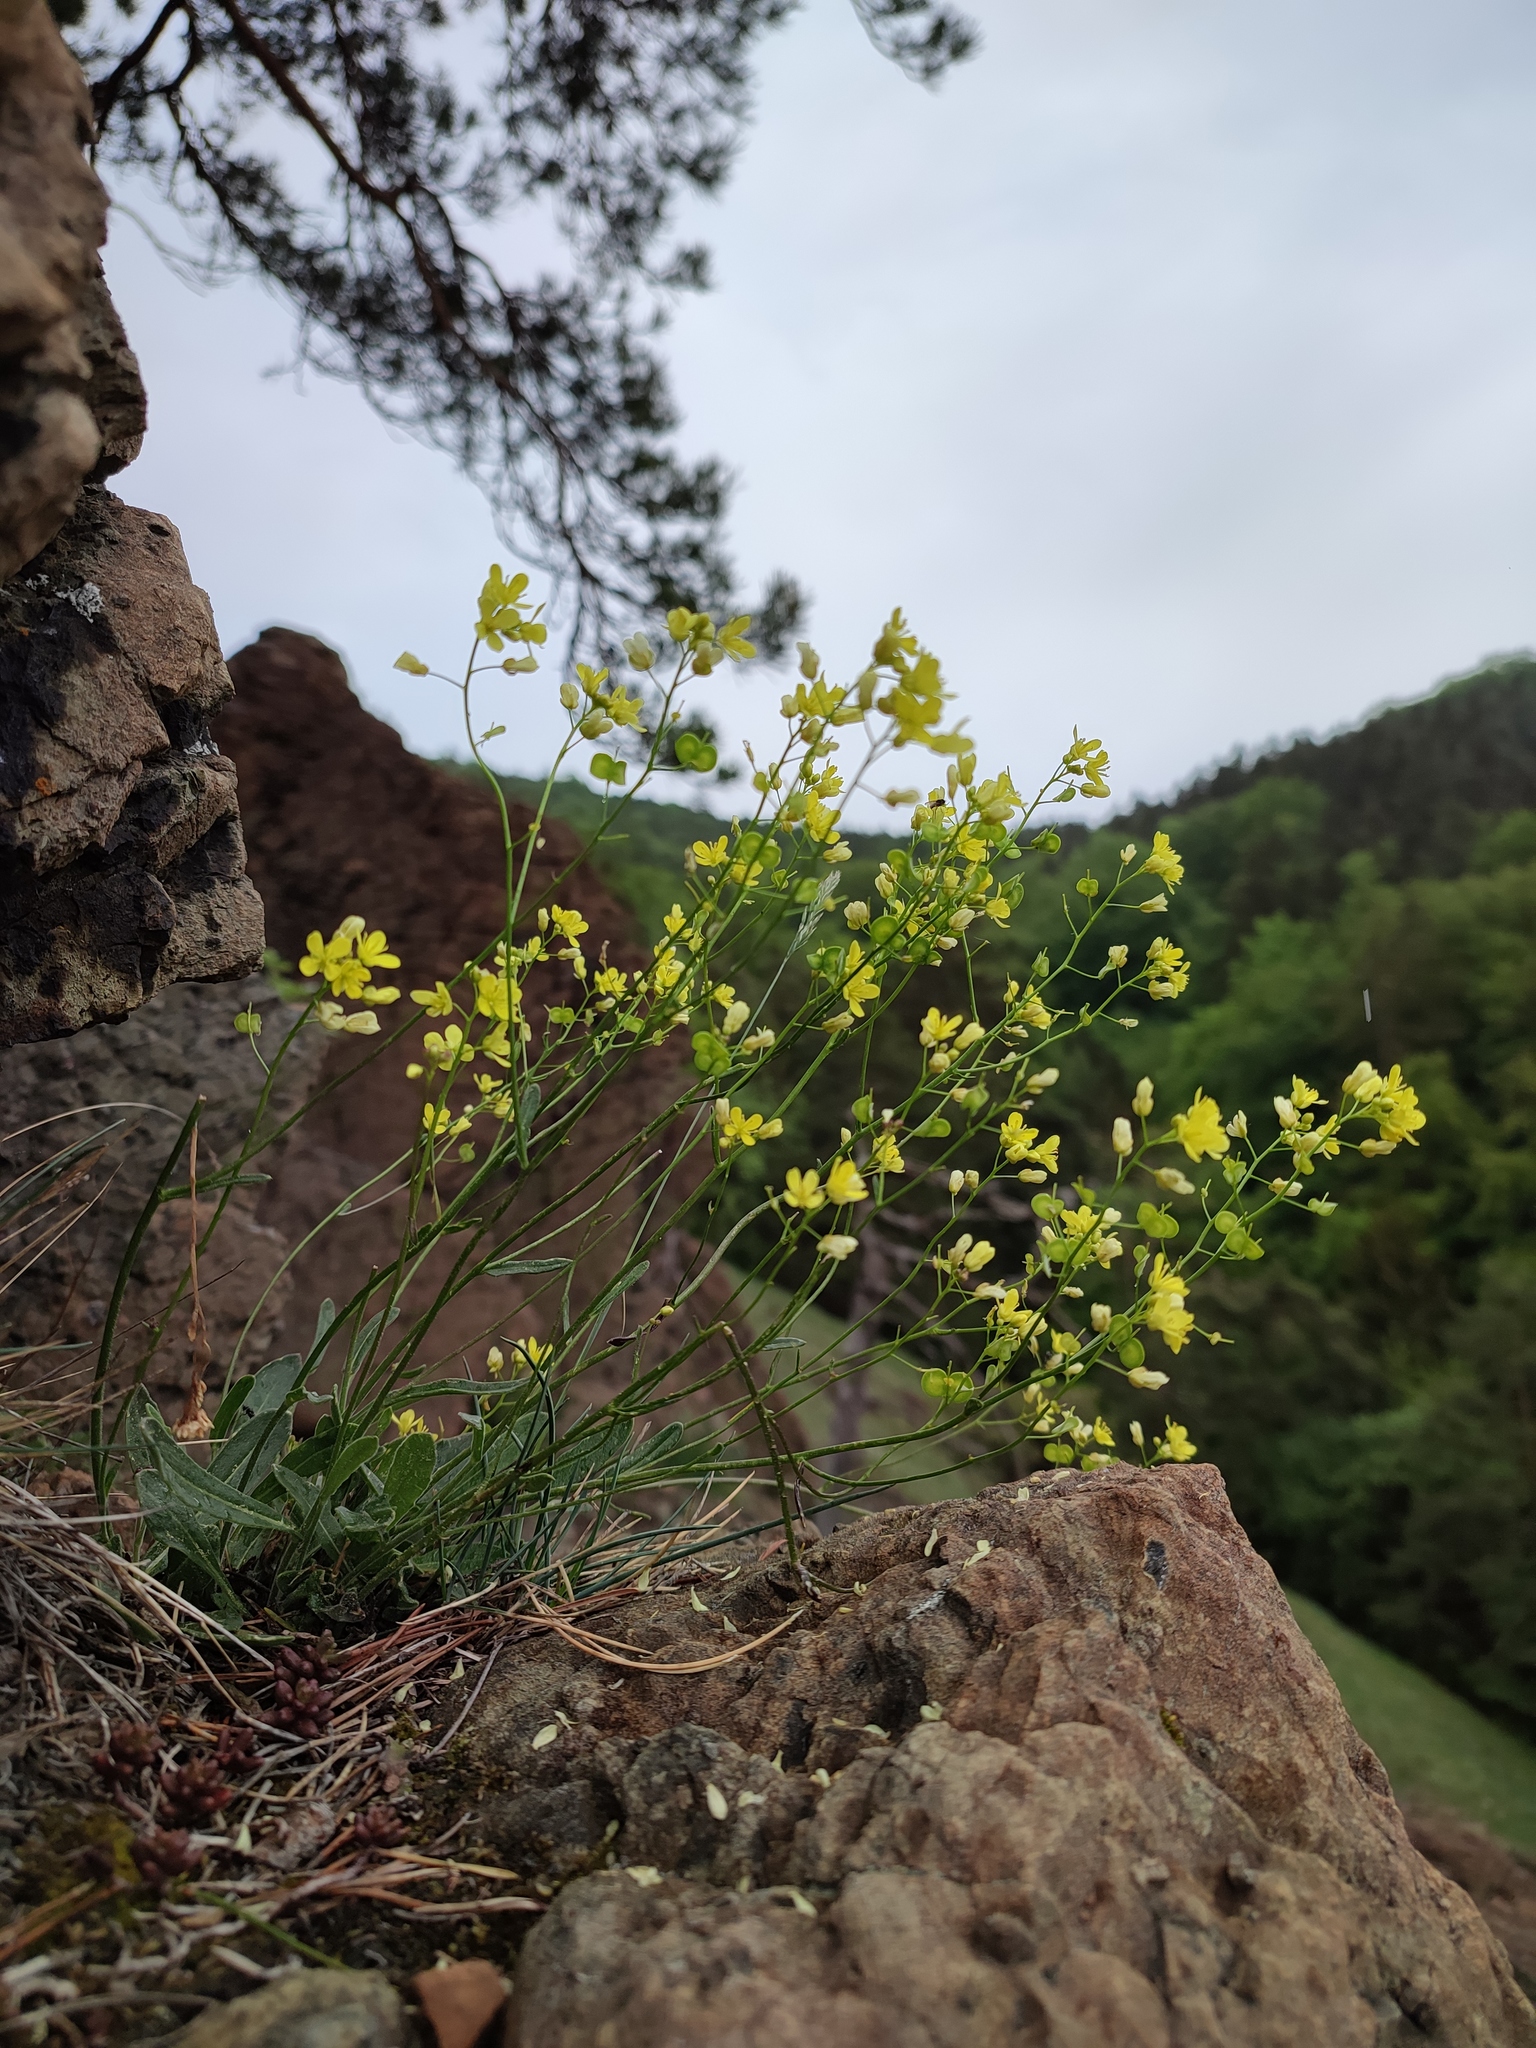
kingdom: Plantae
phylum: Tracheophyta
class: Magnoliopsida
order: Brassicales
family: Brassicaceae
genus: Biscutella
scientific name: Biscutella laevigata
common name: Buckler mustard
